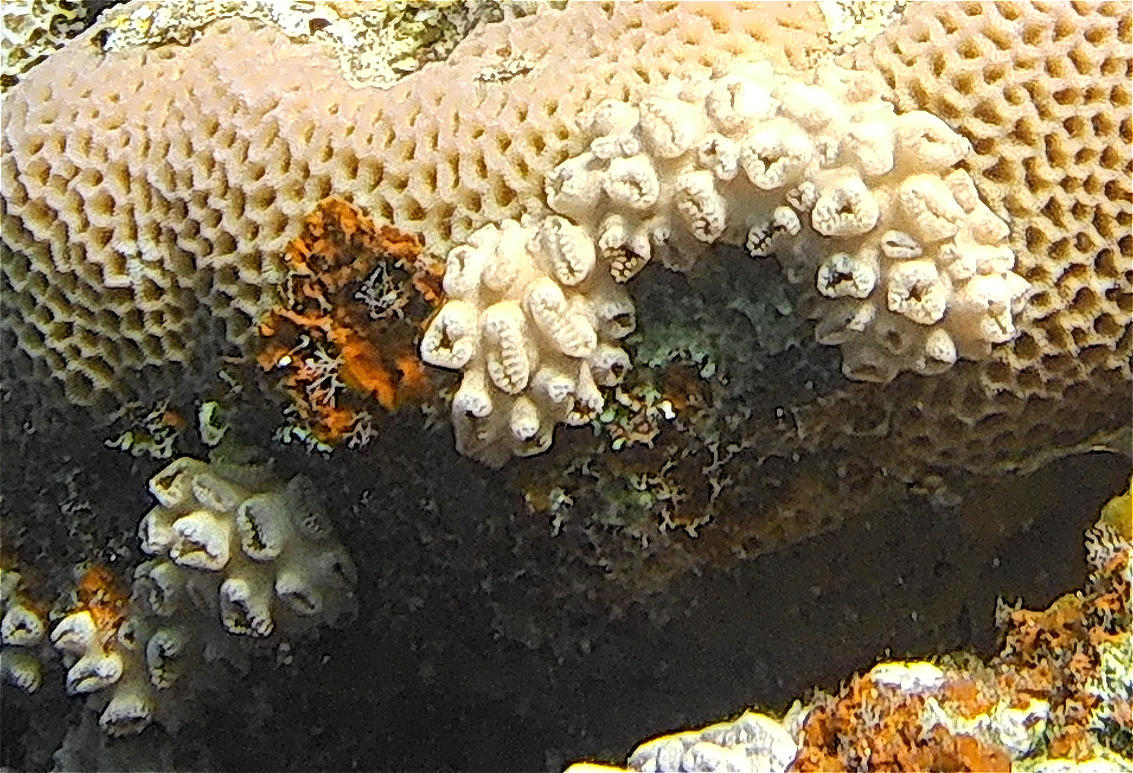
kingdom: Animalia
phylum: Cnidaria
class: Anthozoa
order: Zoantharia
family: Sphenopidae
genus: Palythoa
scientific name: Palythoa tuberculosa
